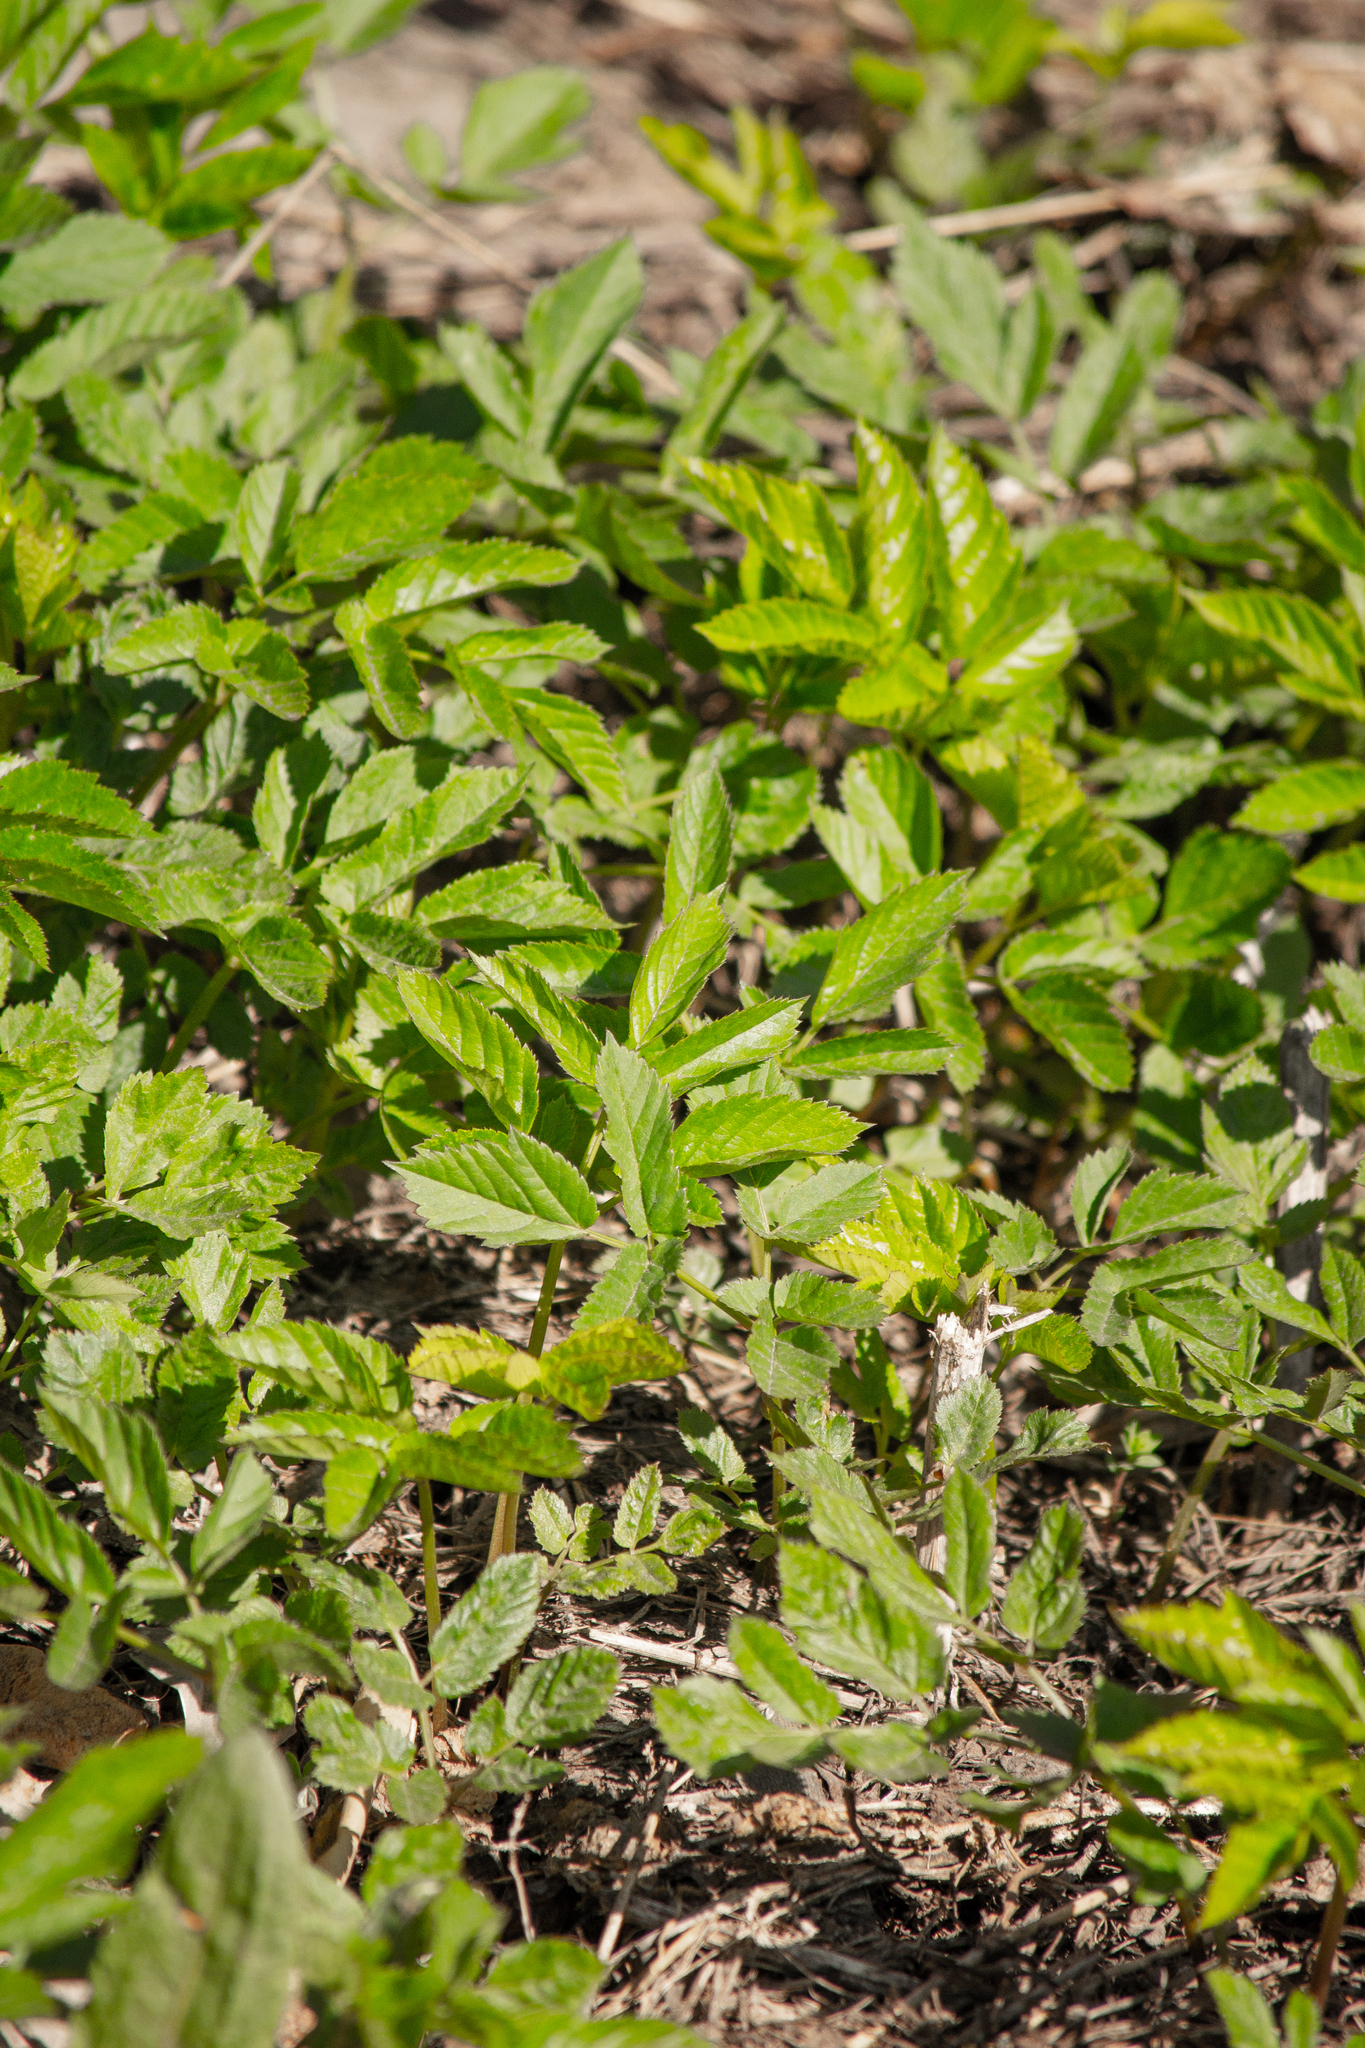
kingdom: Plantae
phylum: Tracheophyta
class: Magnoliopsida
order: Apiales
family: Apiaceae
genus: Aegopodium
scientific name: Aegopodium podagraria
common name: Ground-elder
